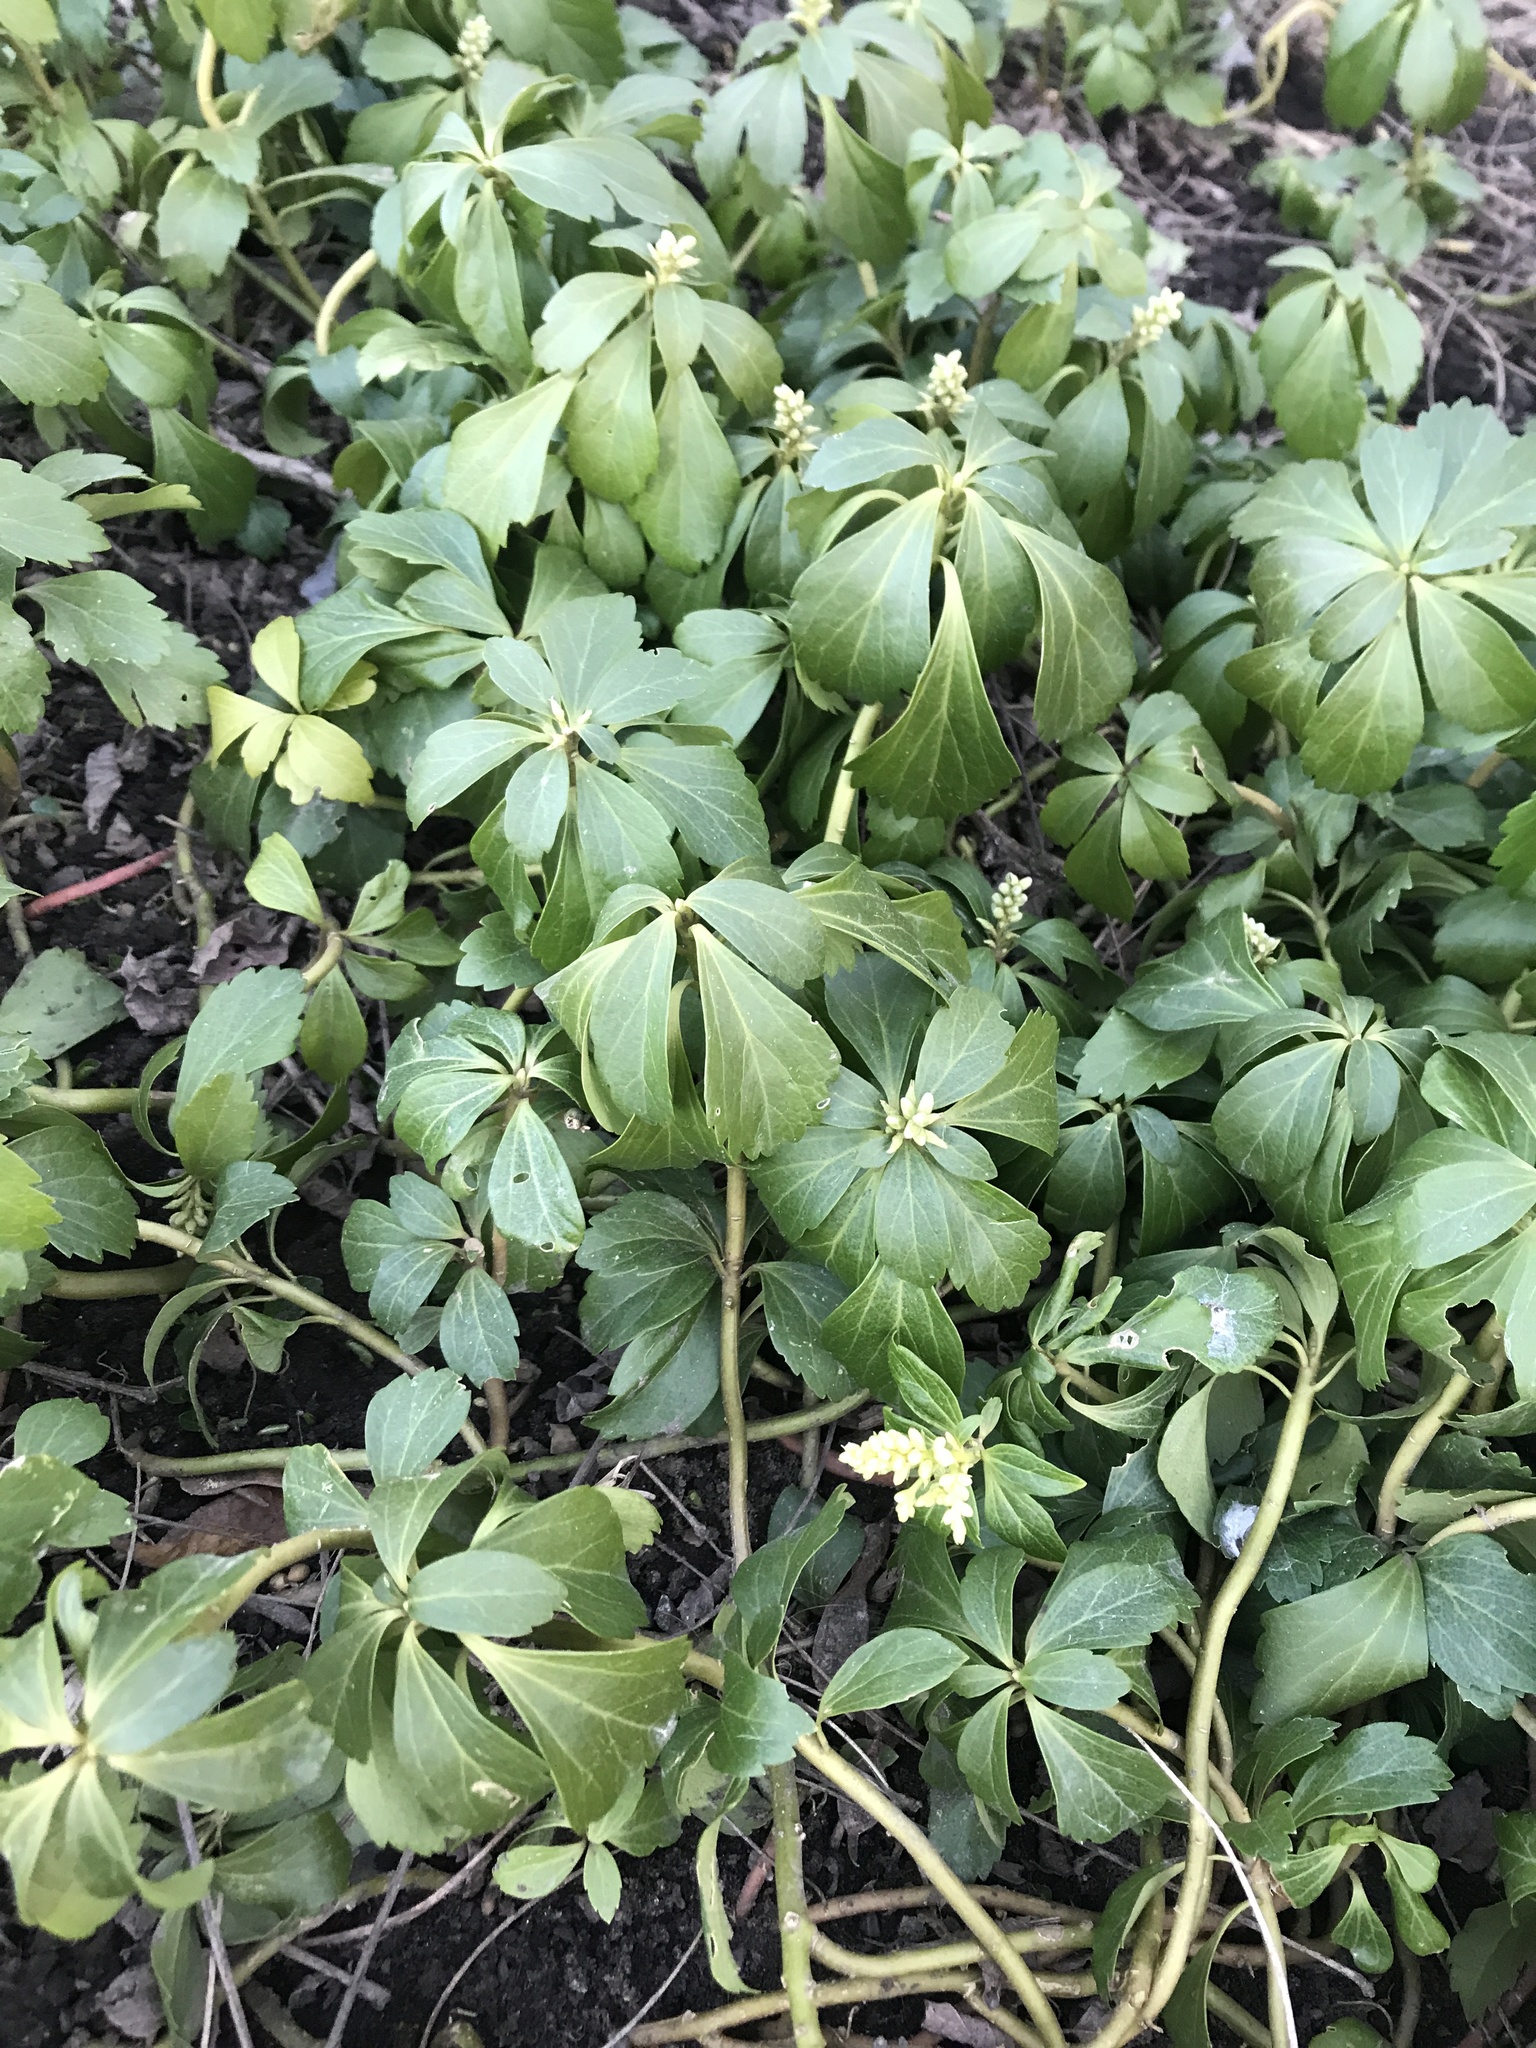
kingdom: Plantae
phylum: Tracheophyta
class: Magnoliopsida
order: Buxales
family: Buxaceae
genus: Pachysandra
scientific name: Pachysandra terminalis
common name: Japanese pachysandra
